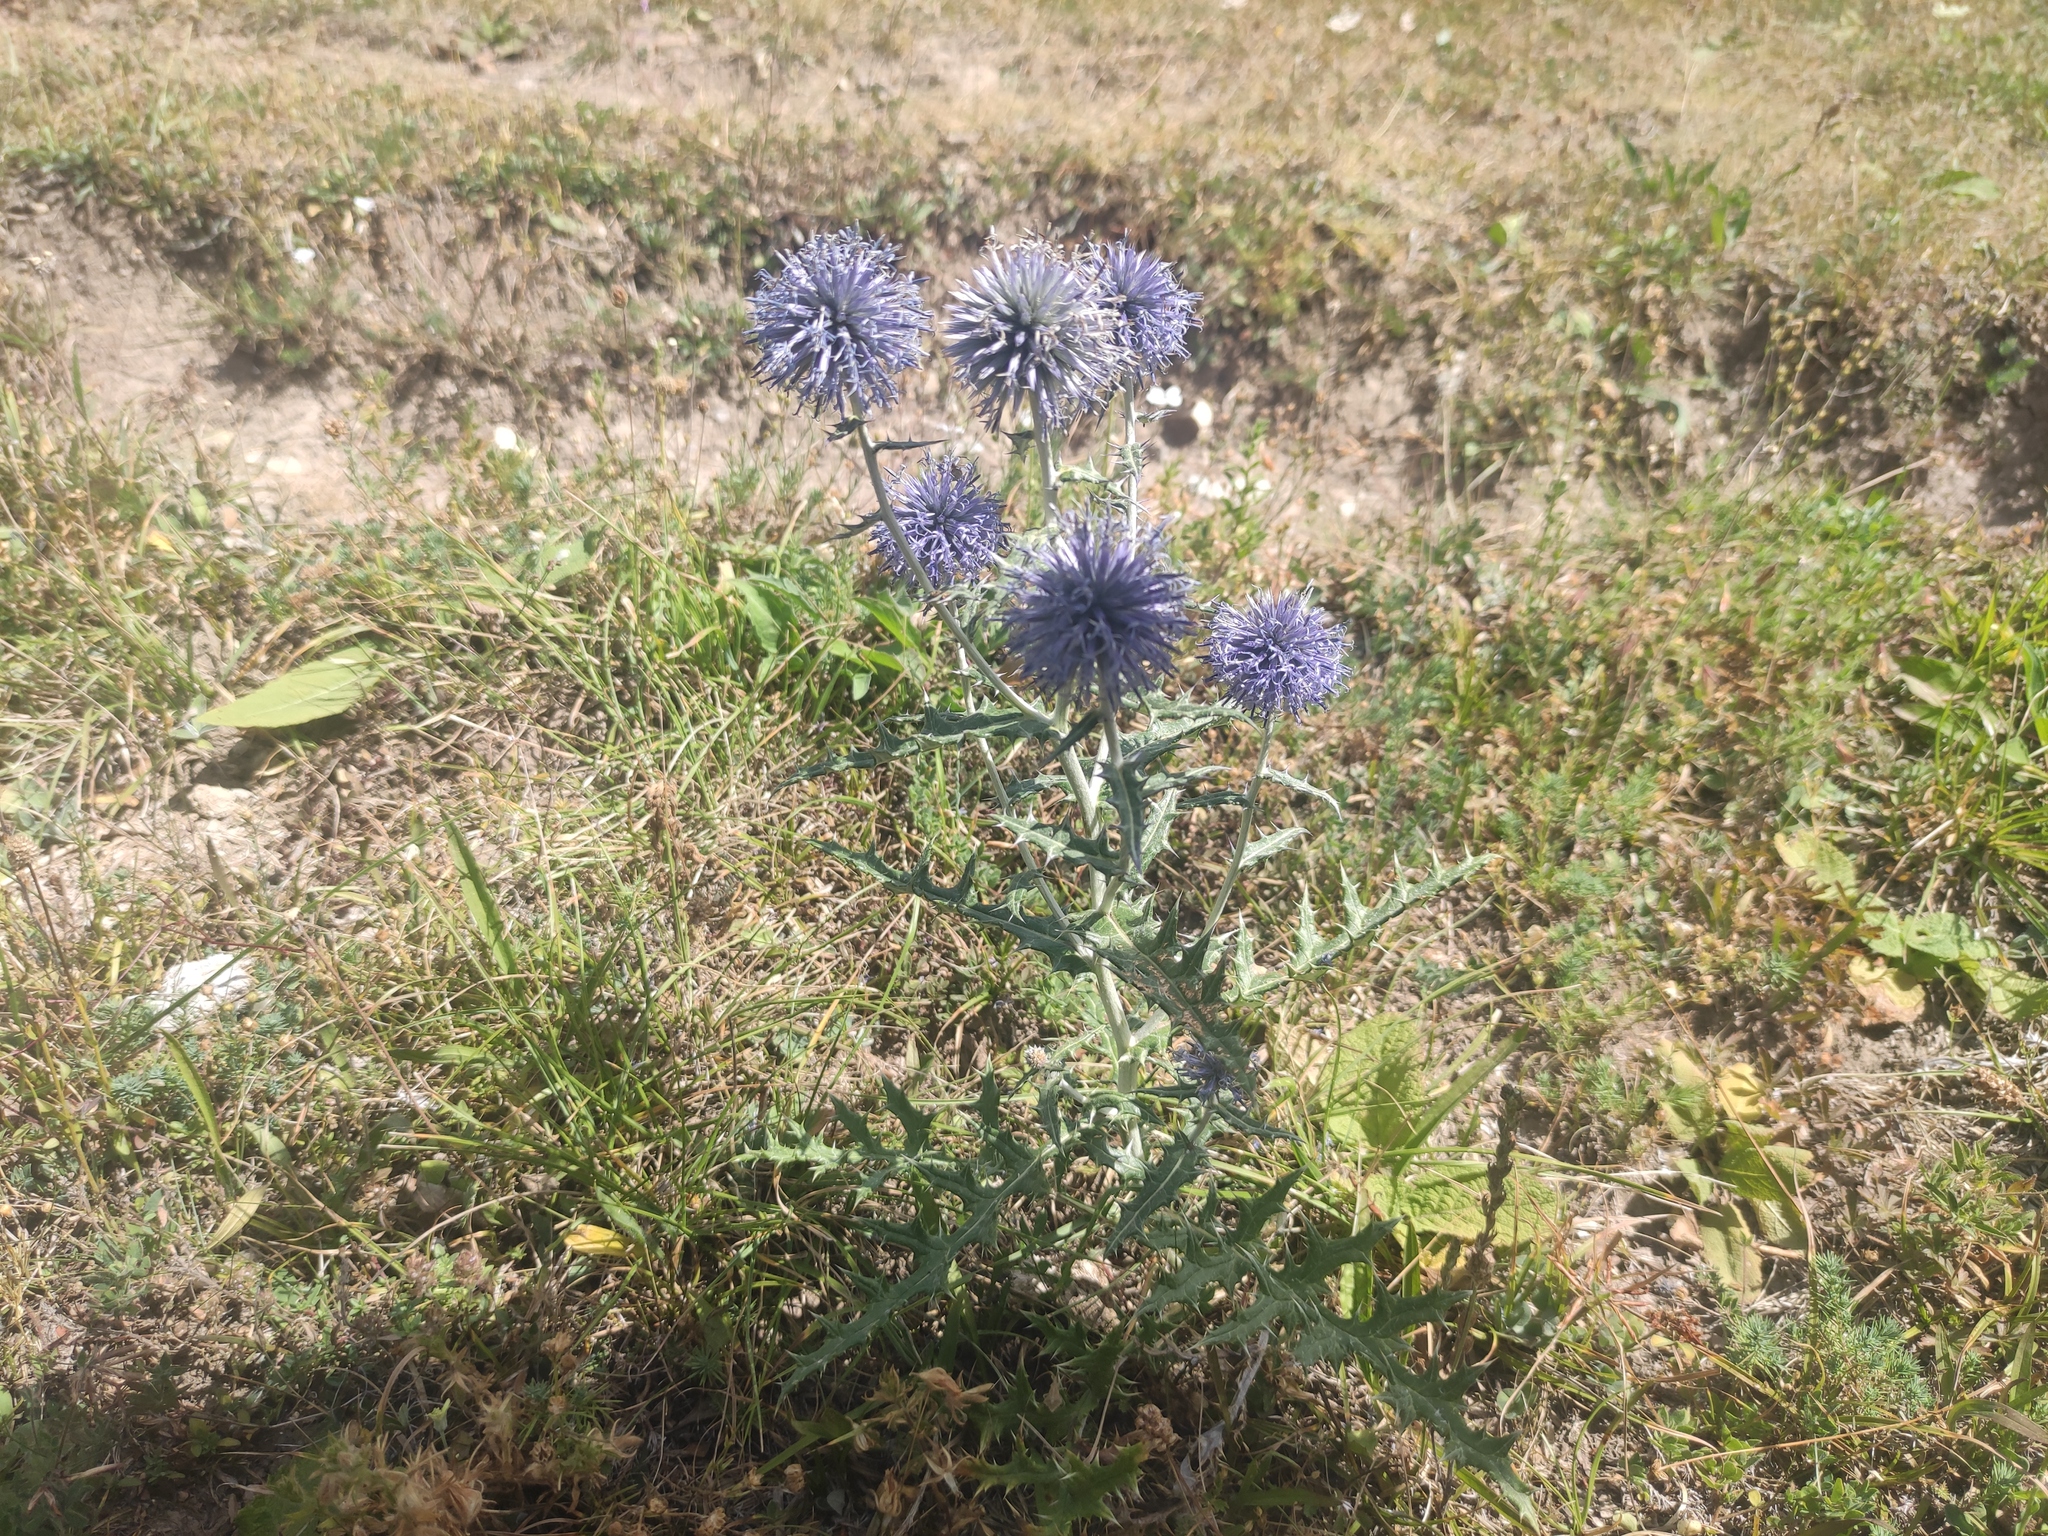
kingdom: Plantae
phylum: Tracheophyta
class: Magnoliopsida
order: Asterales
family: Asteraceae
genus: Echinops
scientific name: Echinops ritro
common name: Globe thistle
